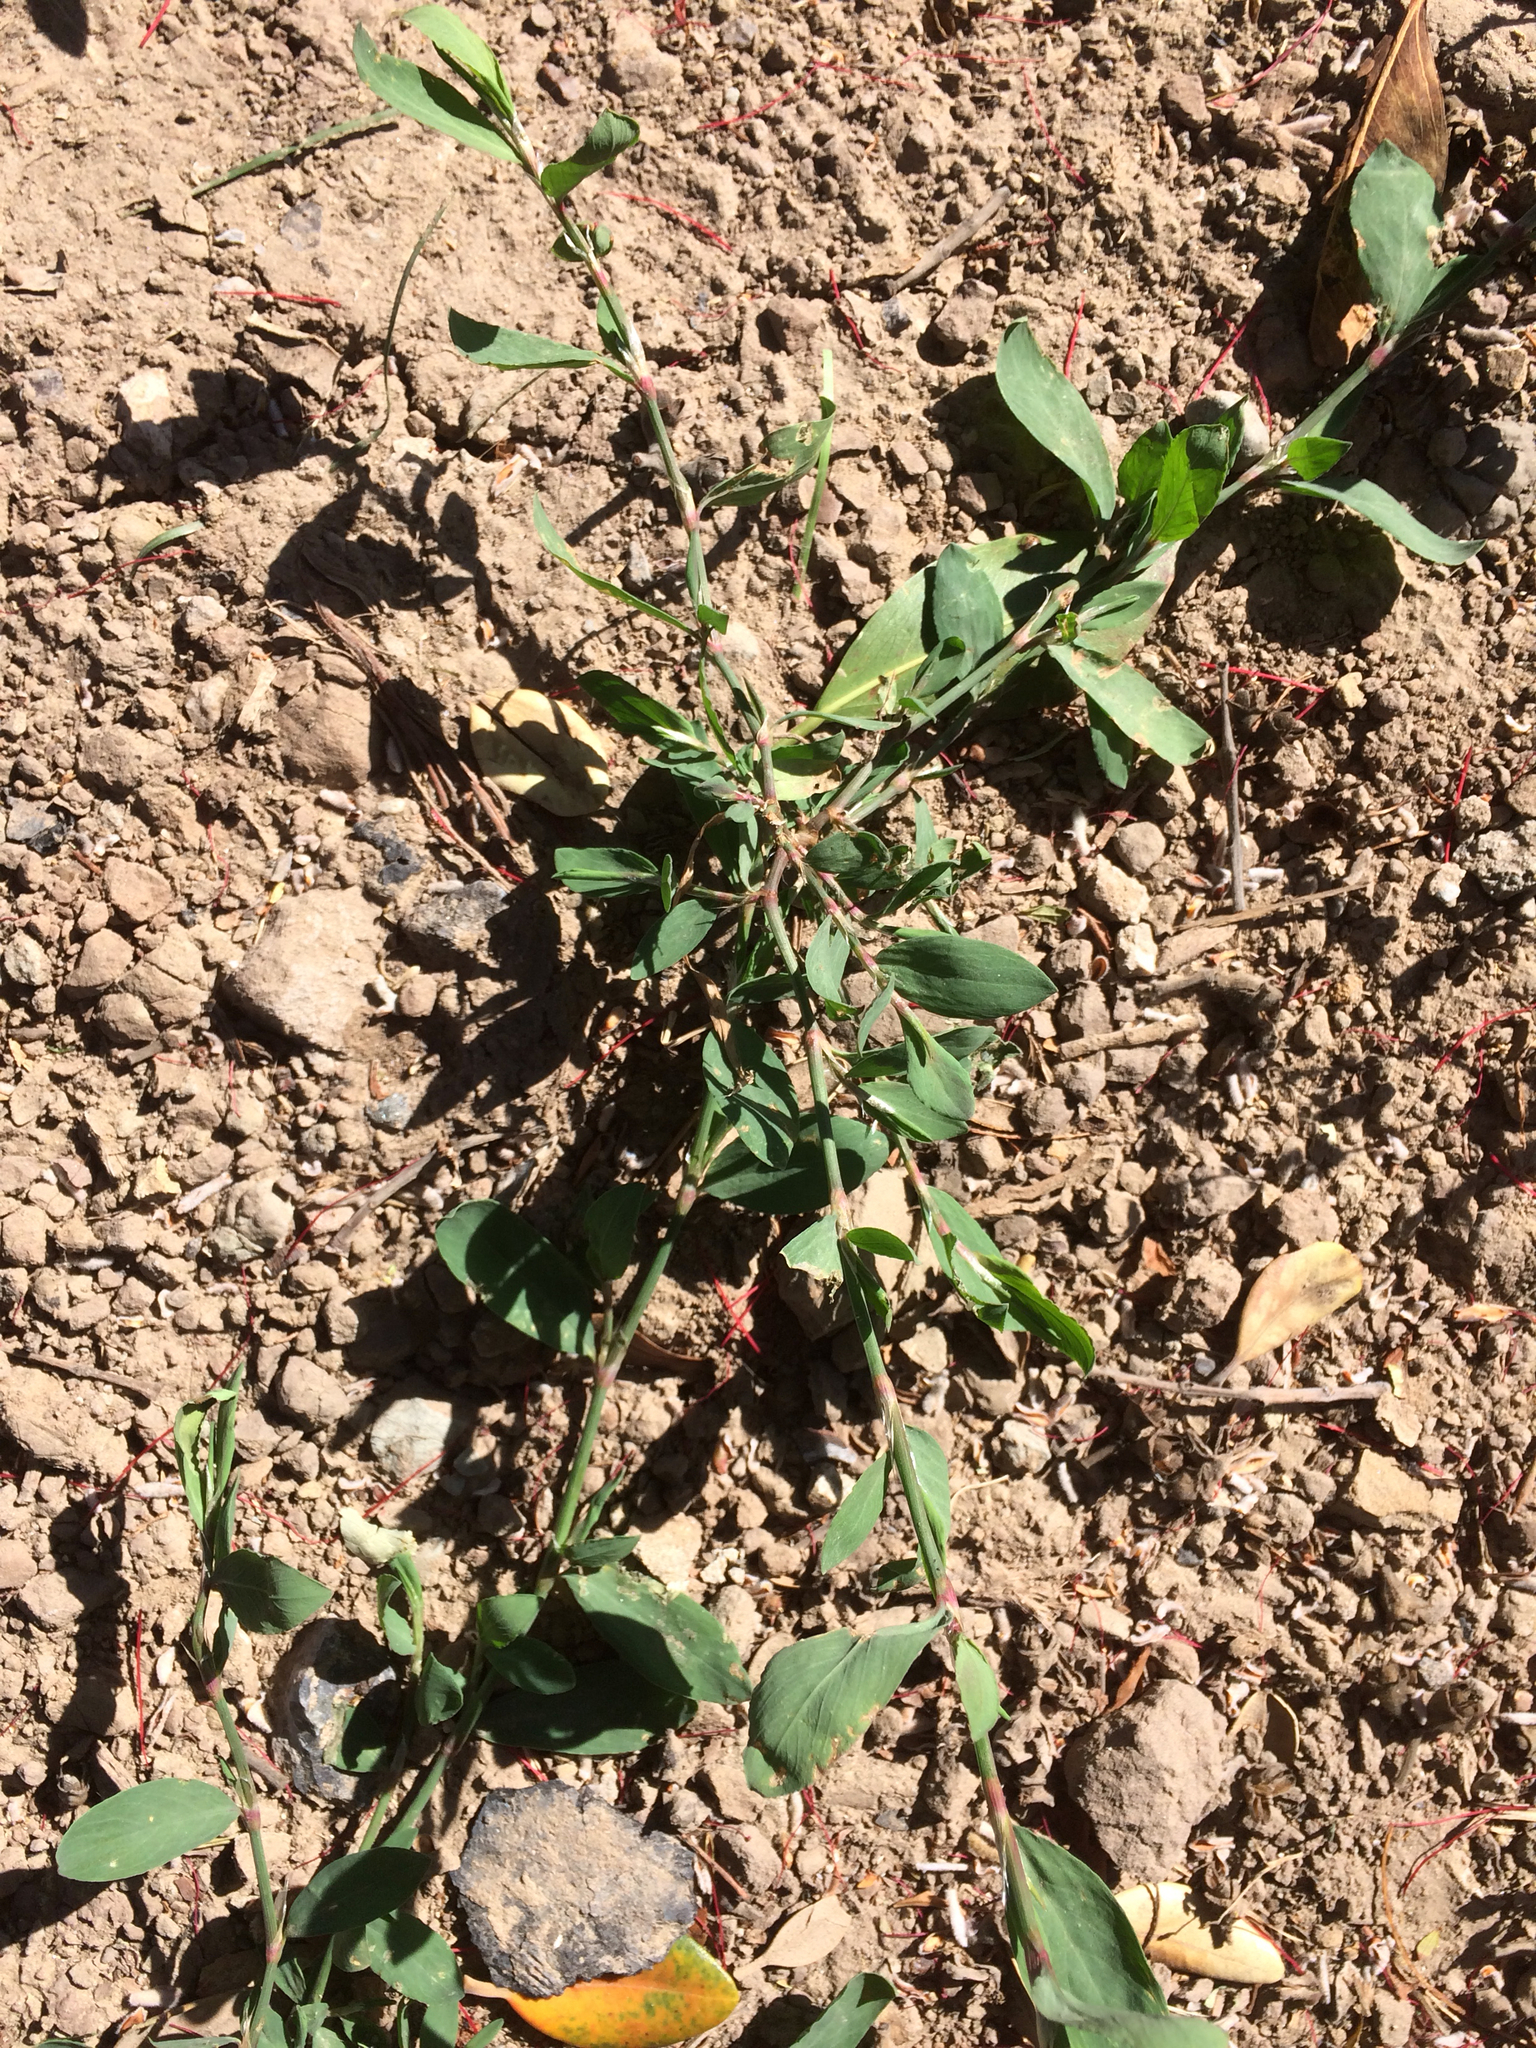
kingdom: Plantae
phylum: Tracheophyta
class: Magnoliopsida
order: Caryophyllales
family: Polygonaceae
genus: Polygonum
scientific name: Polygonum aviculare
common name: Prostrate knotweed
